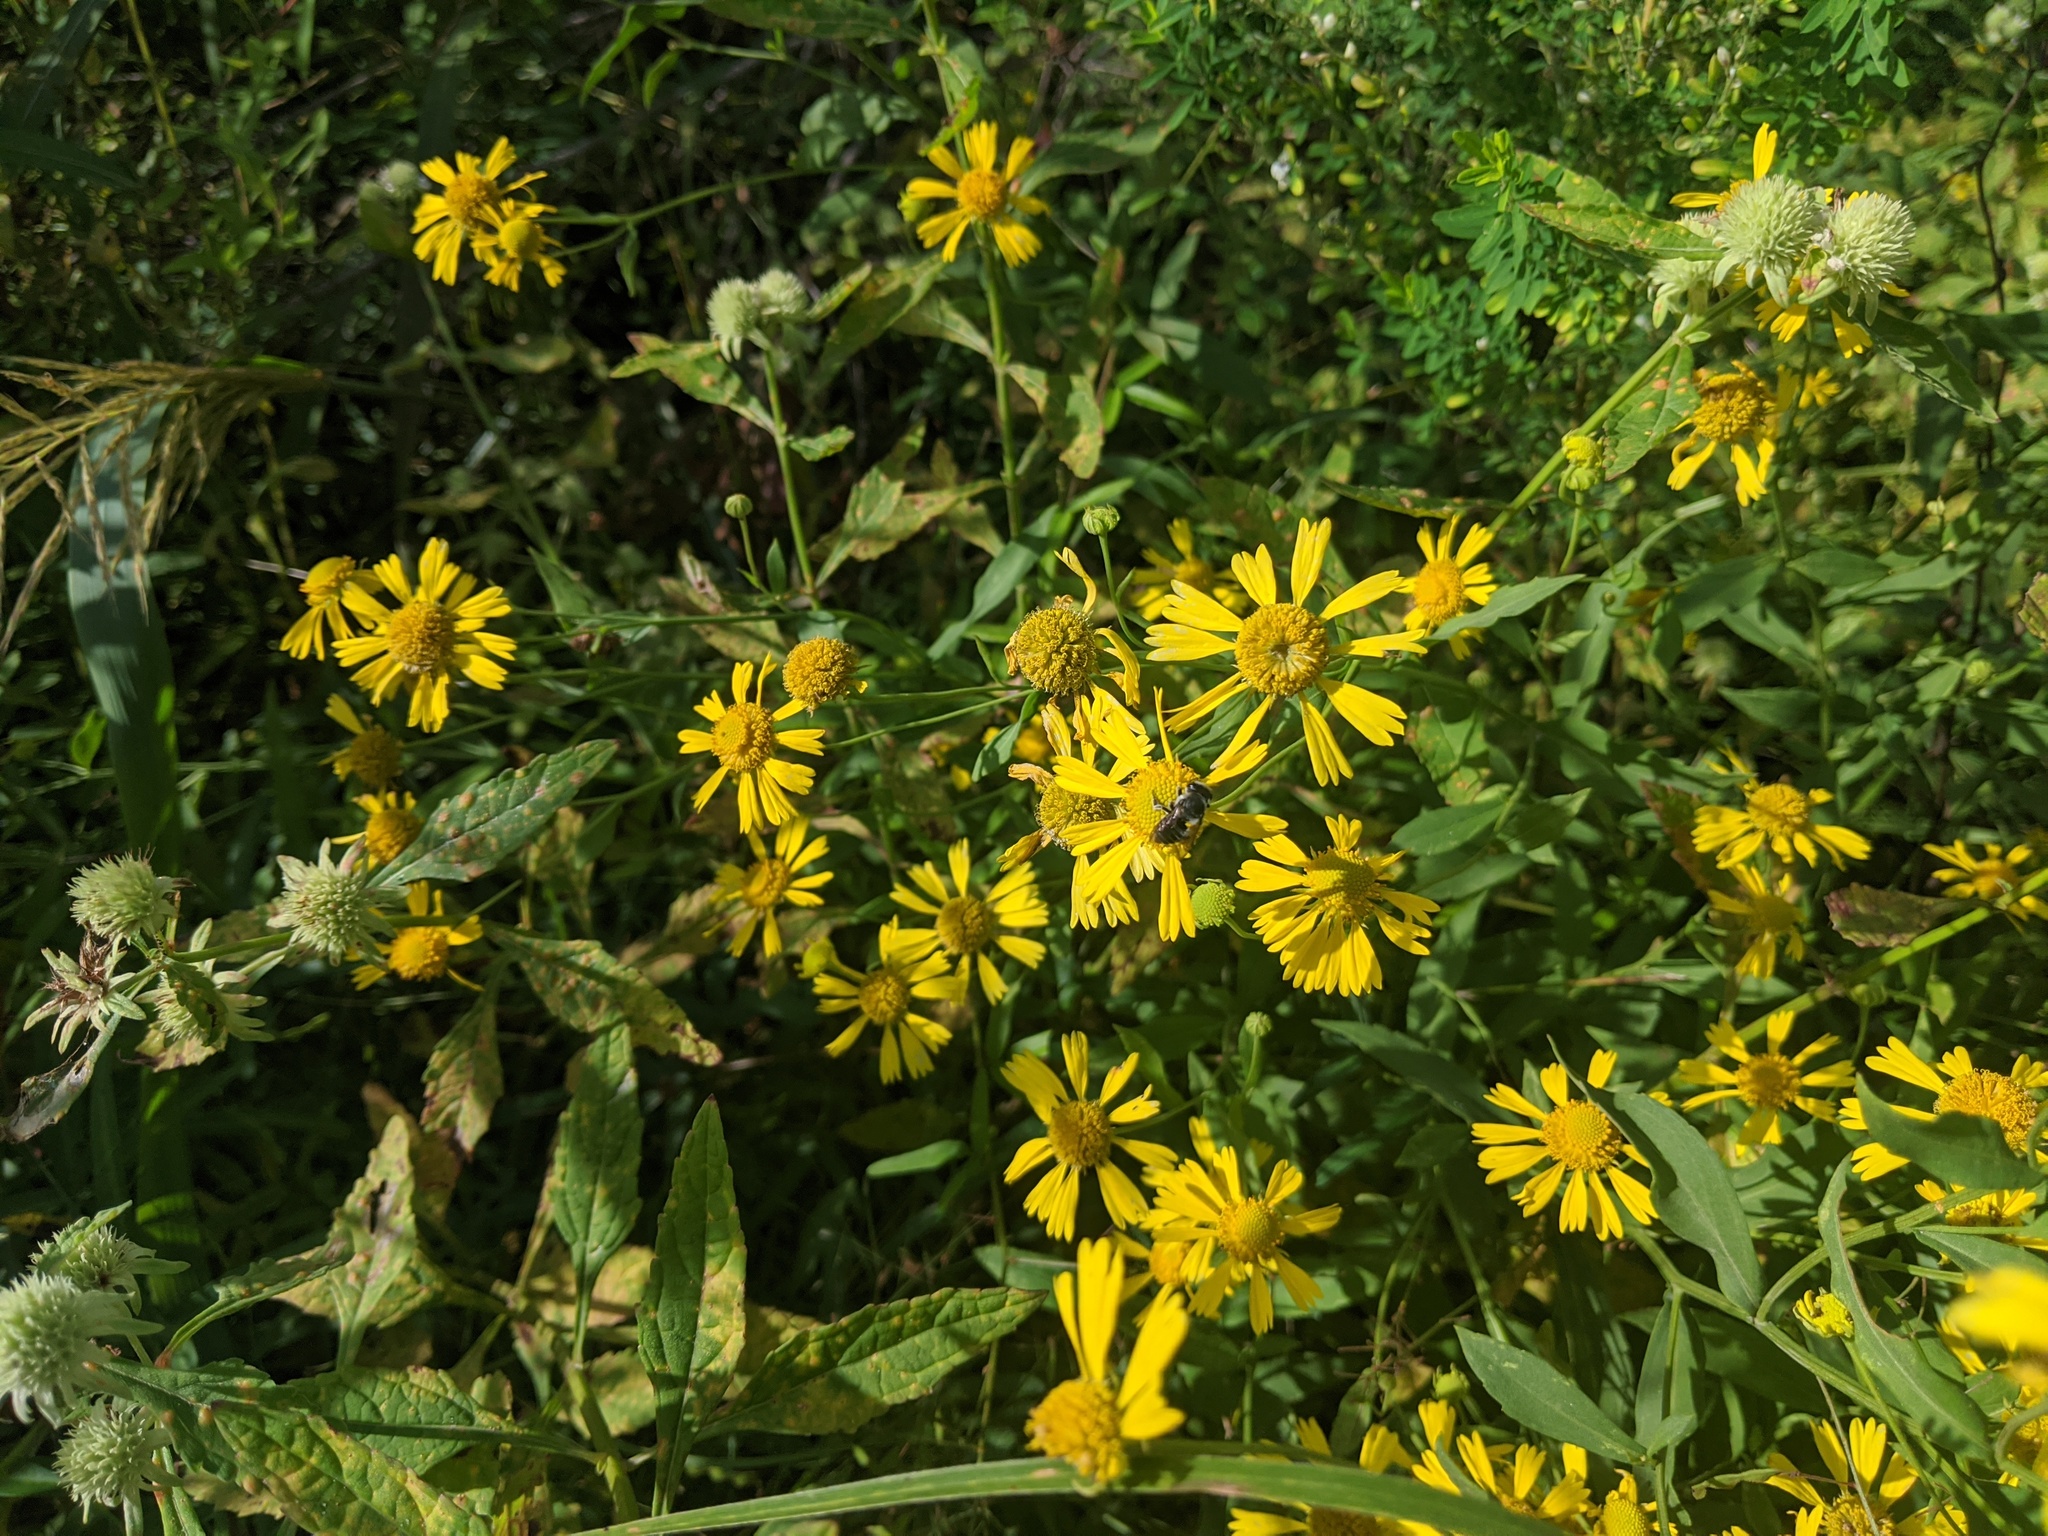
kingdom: Plantae
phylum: Tracheophyta
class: Magnoliopsida
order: Asterales
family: Asteraceae
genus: Helenium
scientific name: Helenium autumnale
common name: Sneezeweed
